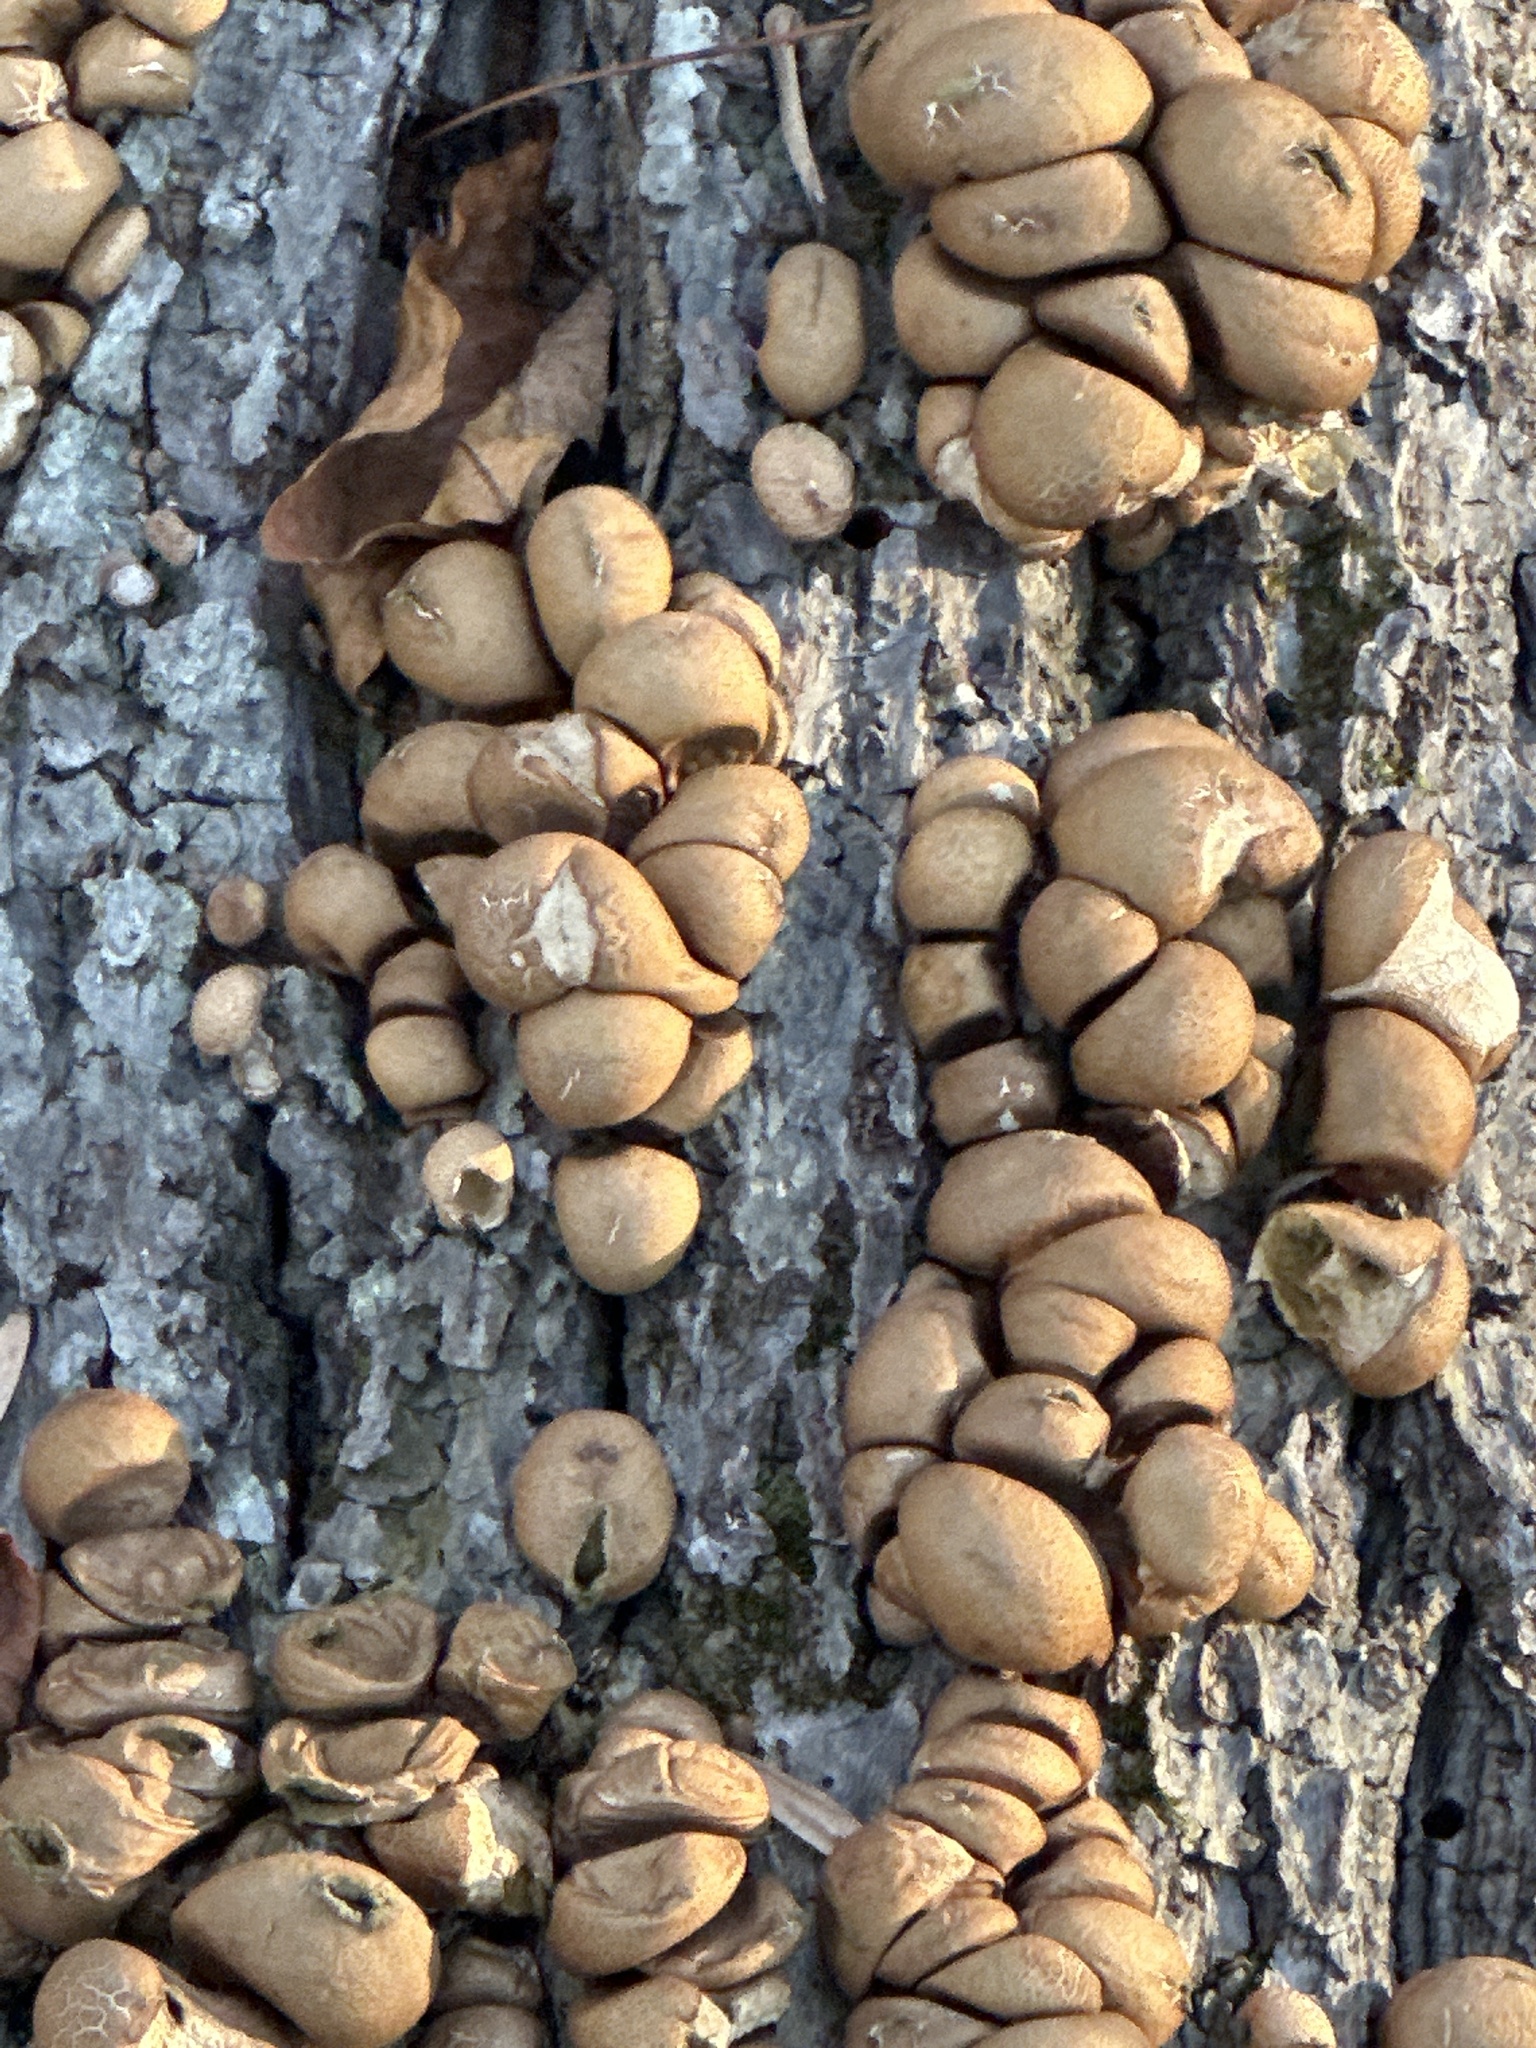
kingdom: Fungi
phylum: Basidiomycota
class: Agaricomycetes
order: Agaricales
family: Lycoperdaceae
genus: Apioperdon
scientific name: Apioperdon pyriforme
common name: Pear-shaped puffball
